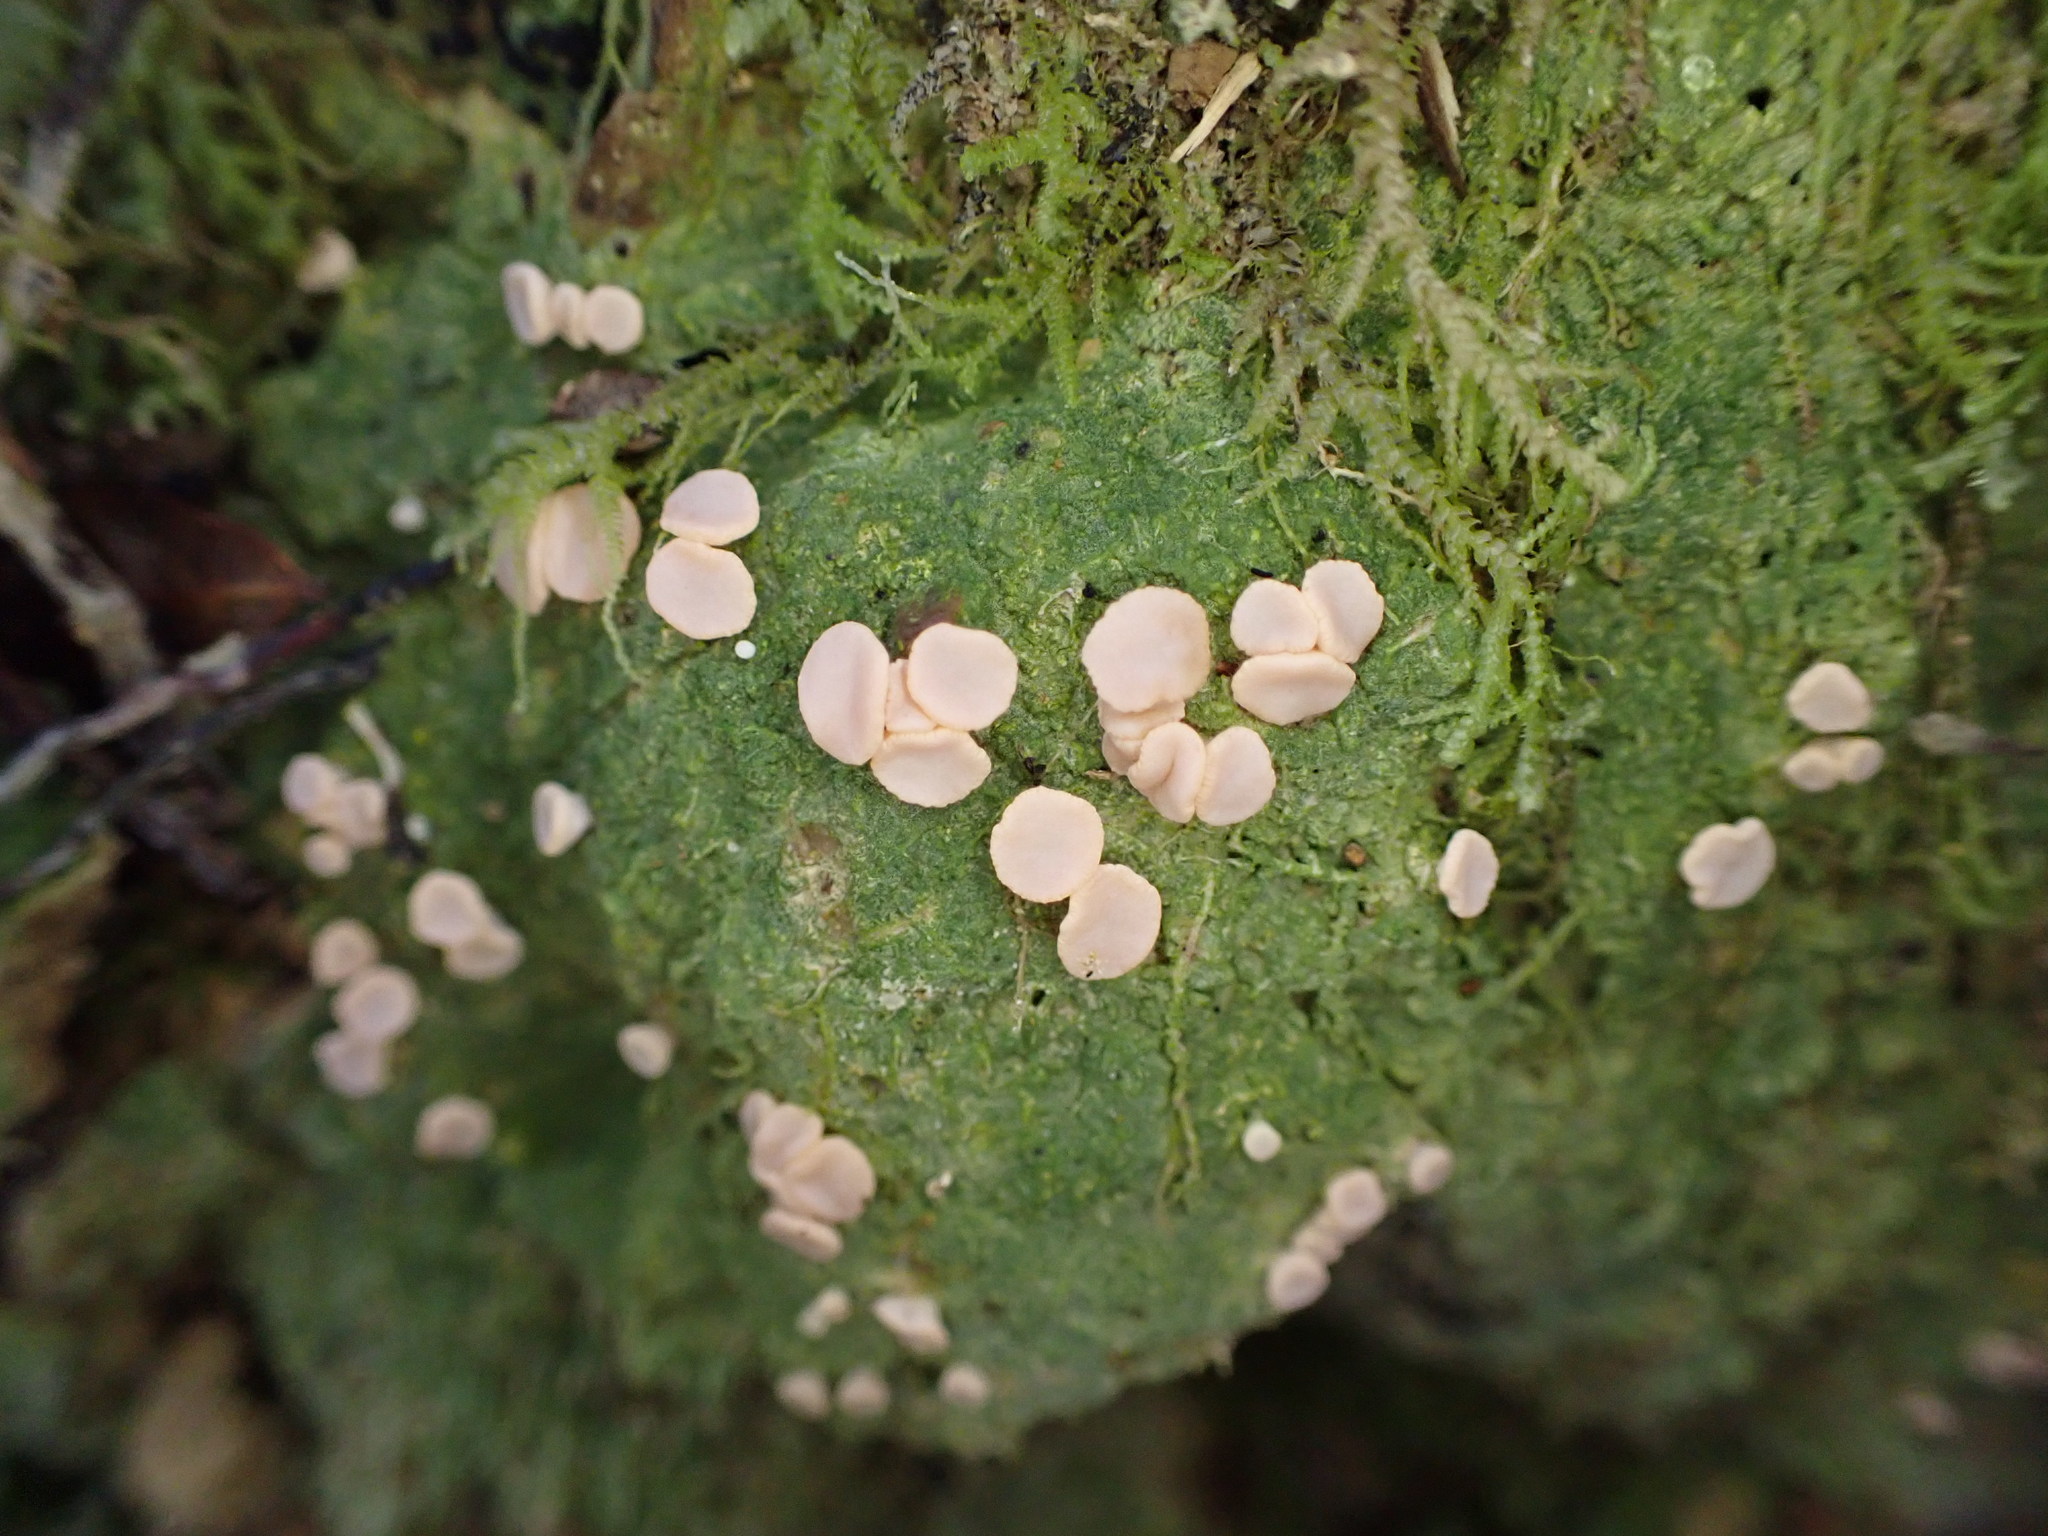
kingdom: Fungi
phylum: Ascomycota
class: Lecanoromycetes
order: Pertusariales
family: Icmadophilaceae
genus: Dibaeis
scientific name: Dibaeis absoluta
